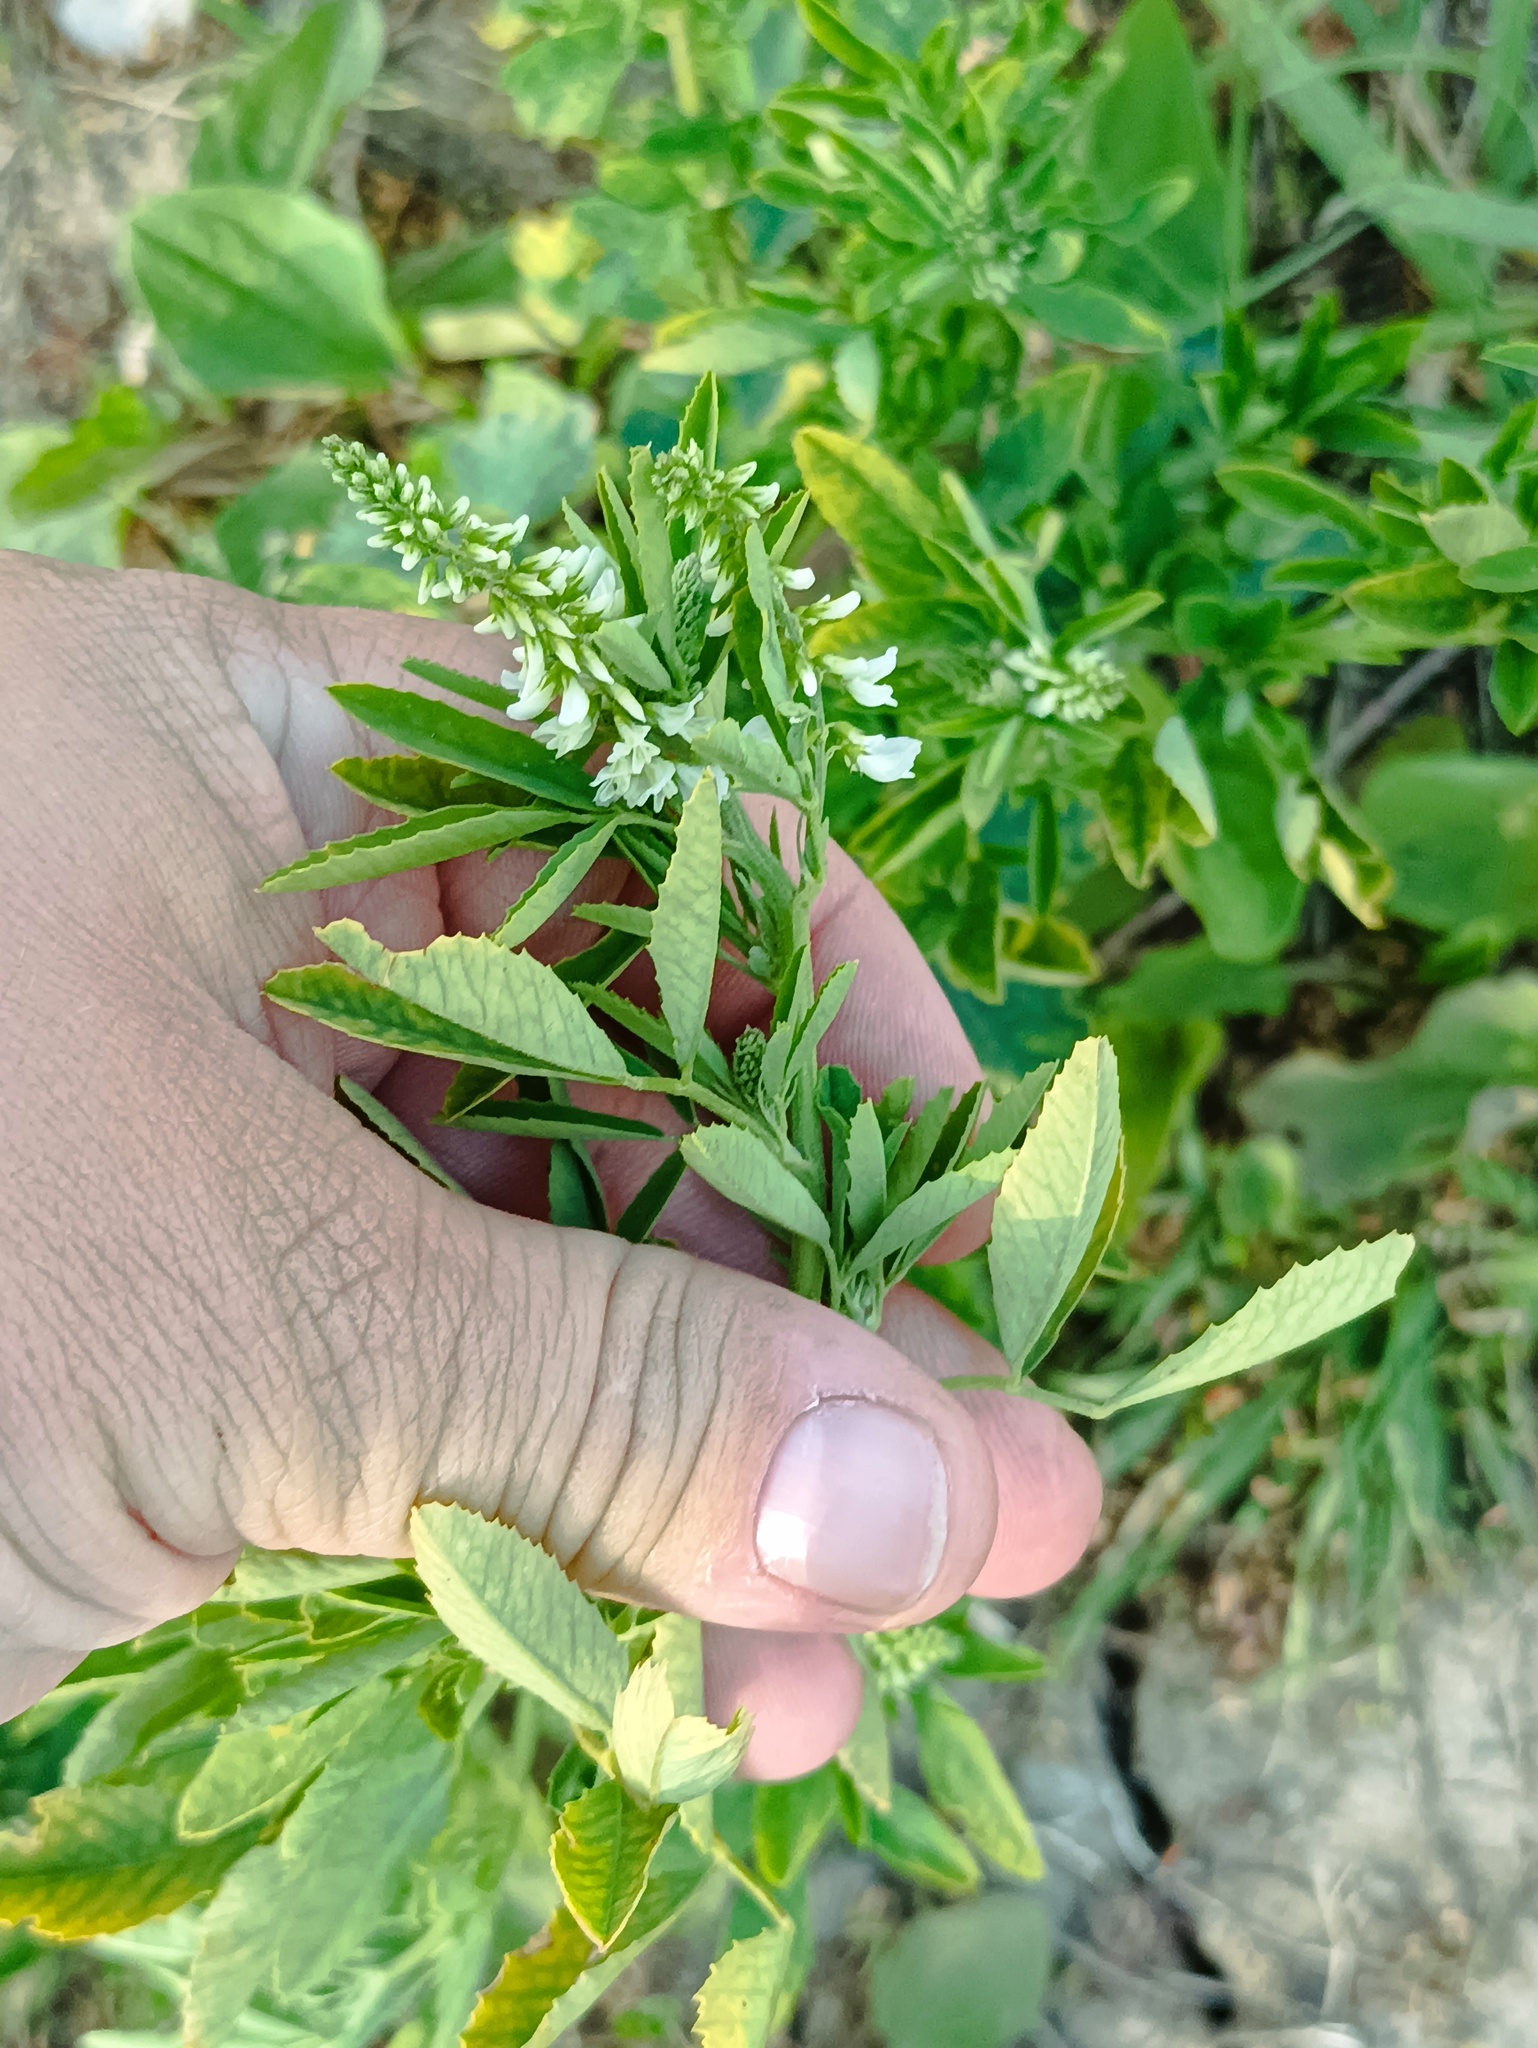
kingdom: Plantae
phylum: Tracheophyta
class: Magnoliopsida
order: Fabales
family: Fabaceae
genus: Melilotus
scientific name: Melilotus albus
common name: White melilot
